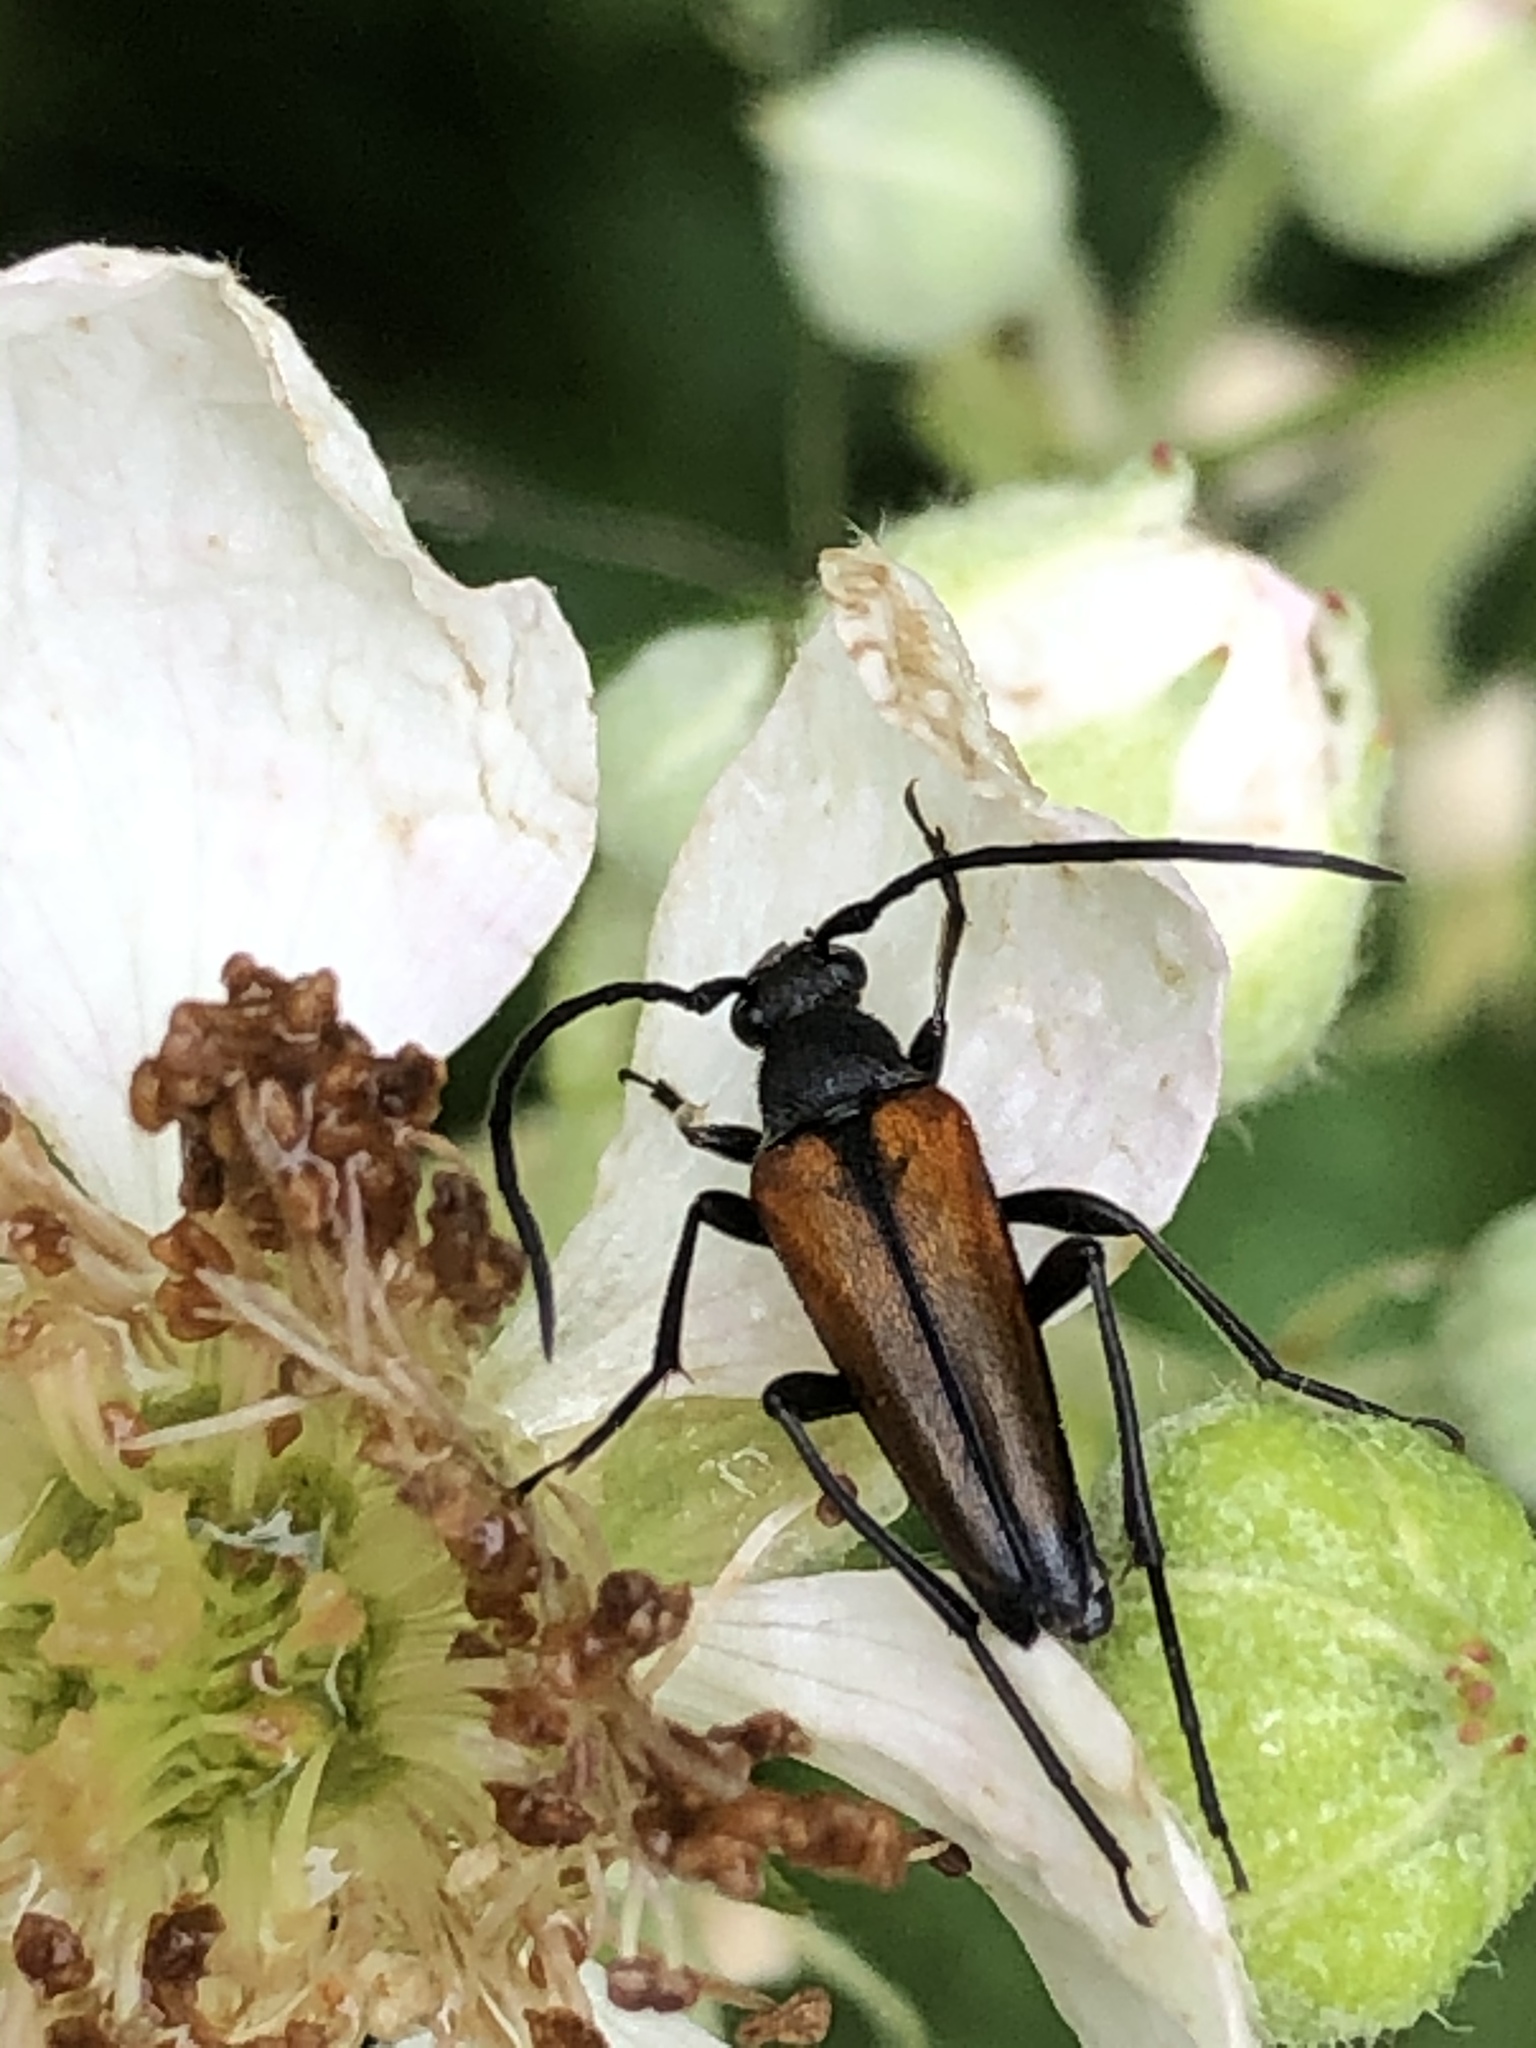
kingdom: Animalia
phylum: Arthropoda
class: Insecta
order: Coleoptera
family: Cerambycidae
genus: Stenurella
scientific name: Stenurella melanura
